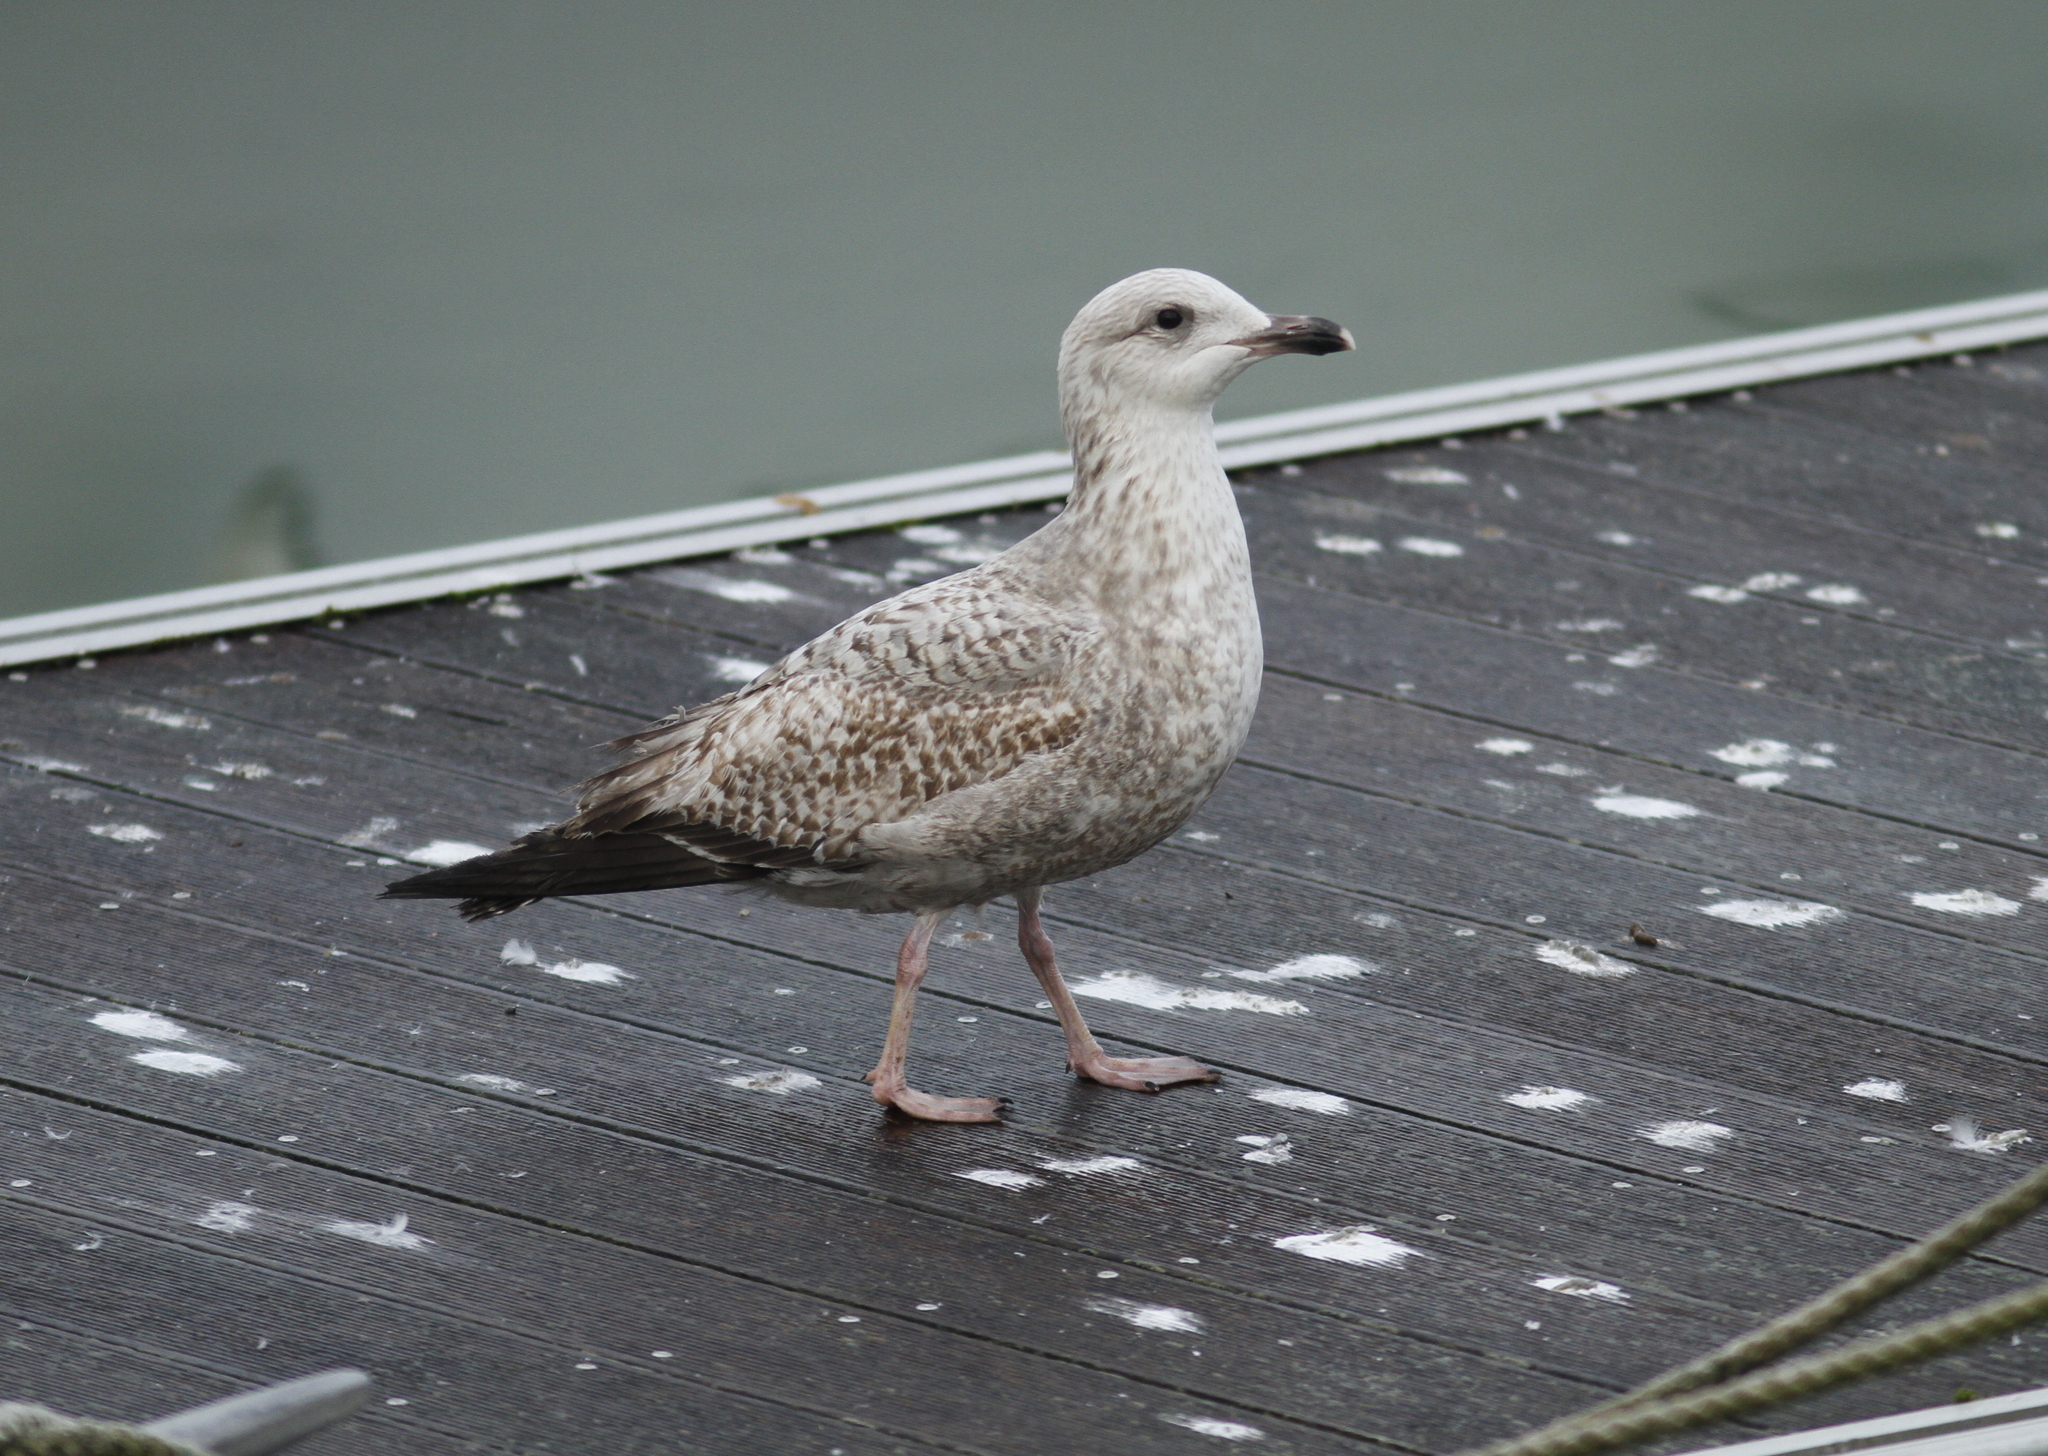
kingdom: Animalia
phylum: Chordata
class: Aves
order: Charadriiformes
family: Laridae
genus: Larus
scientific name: Larus argentatus
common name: Herring gull
